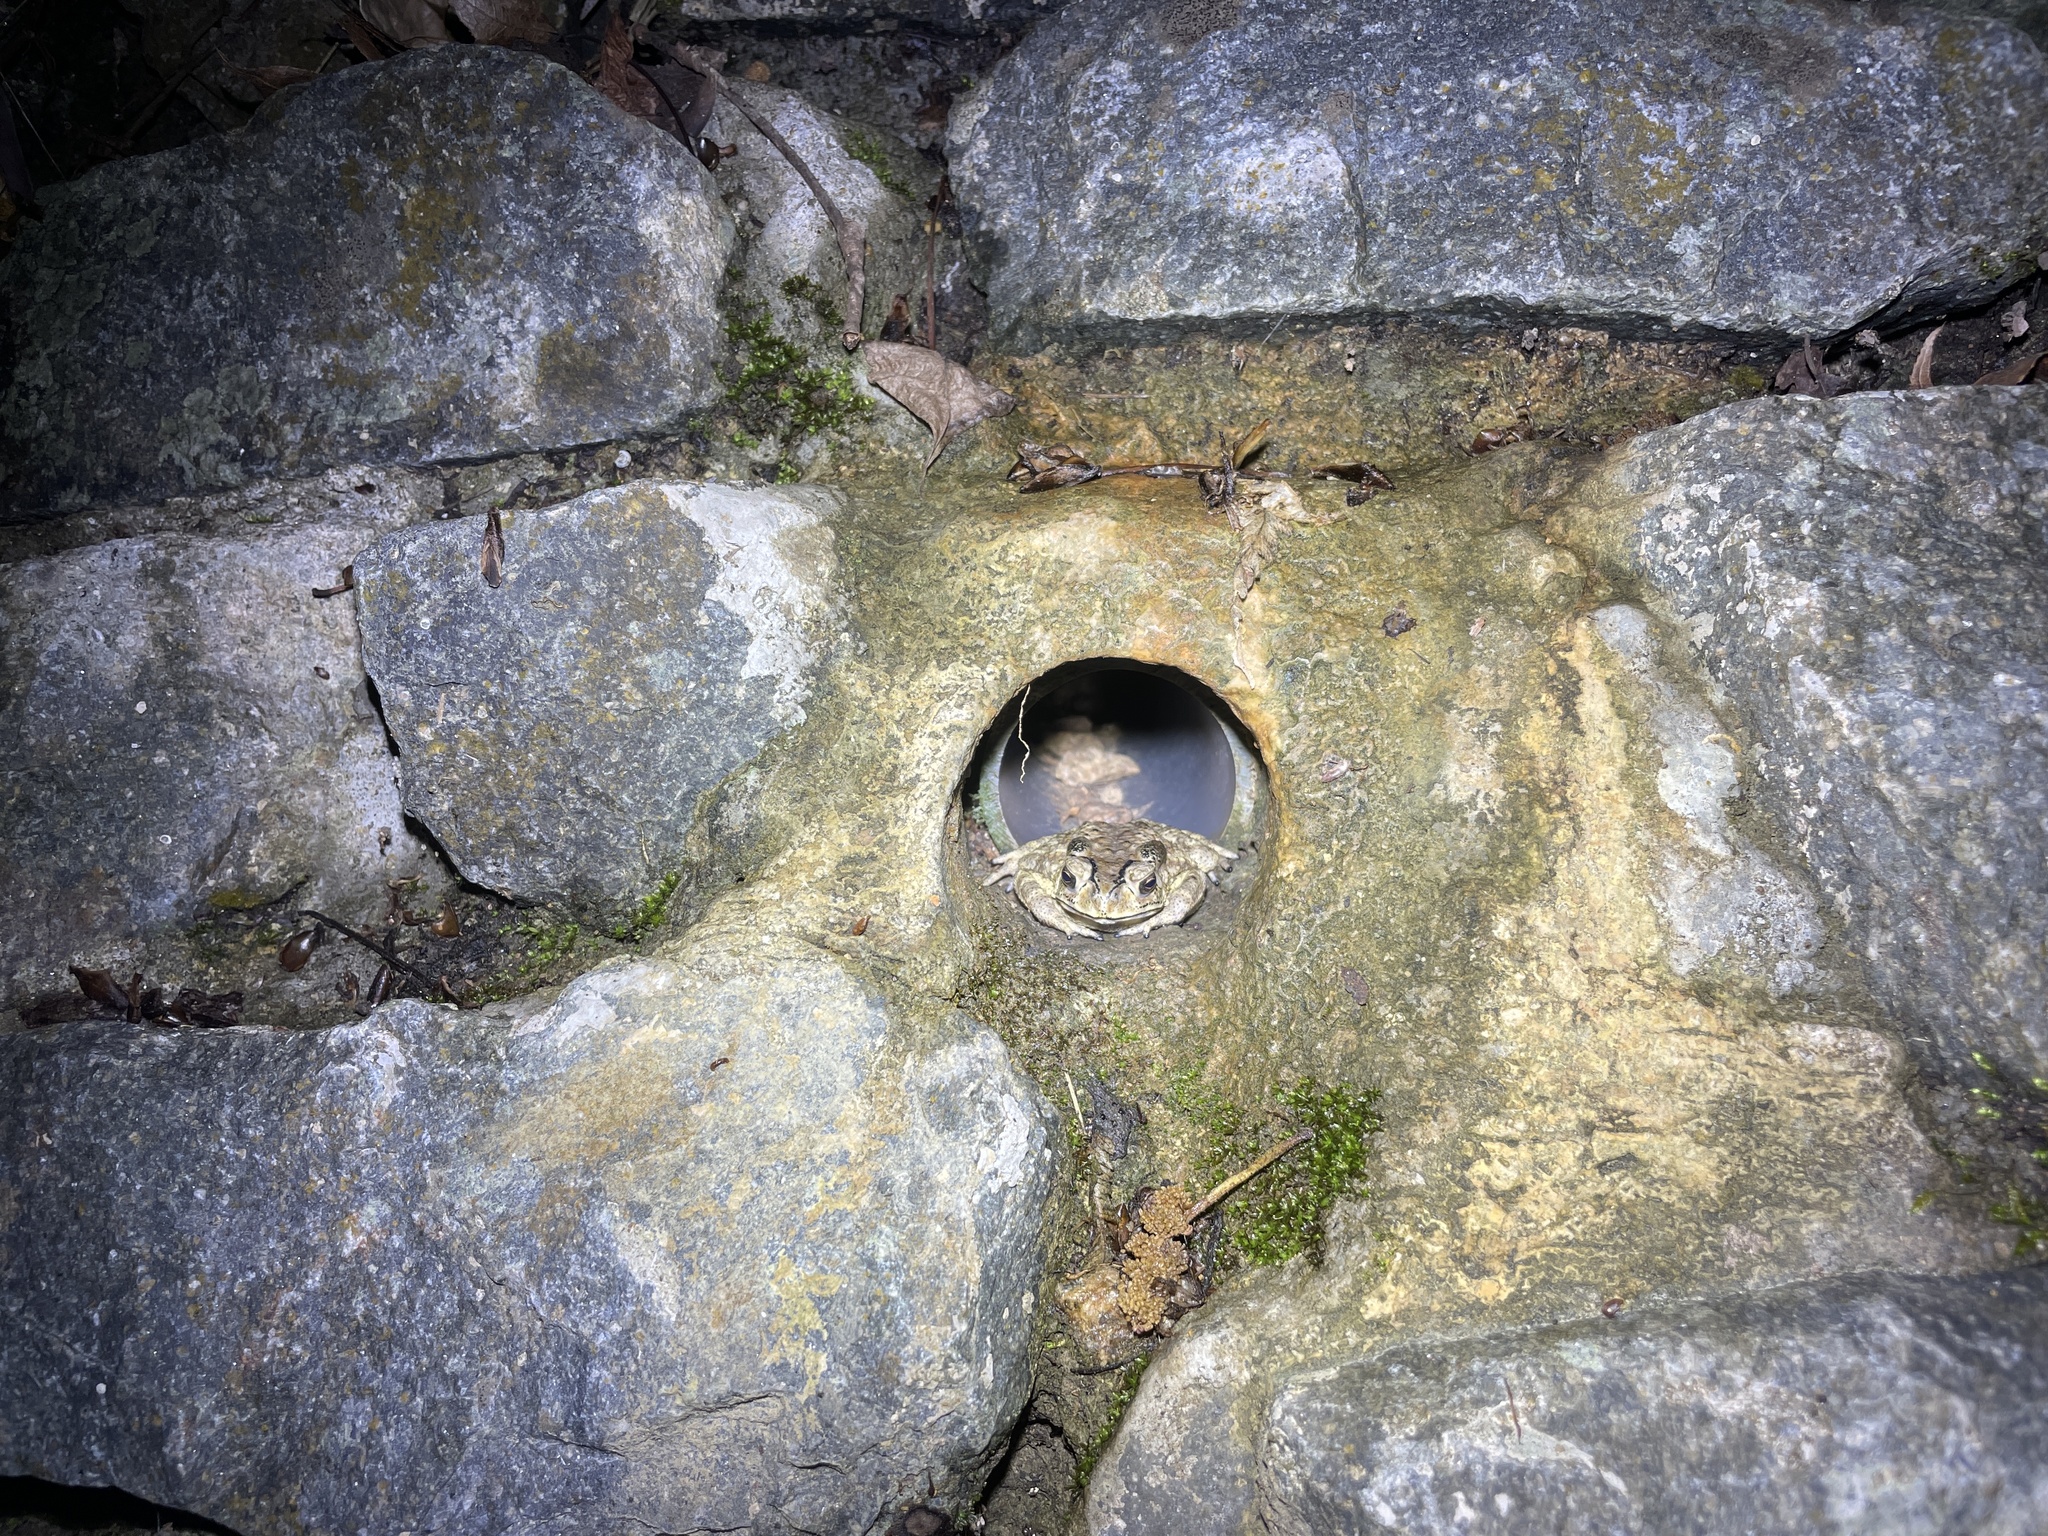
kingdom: Animalia
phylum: Chordata
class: Amphibia
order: Anura
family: Bufonidae
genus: Duttaphrynus
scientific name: Duttaphrynus melanostictus
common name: Common sunda toad
